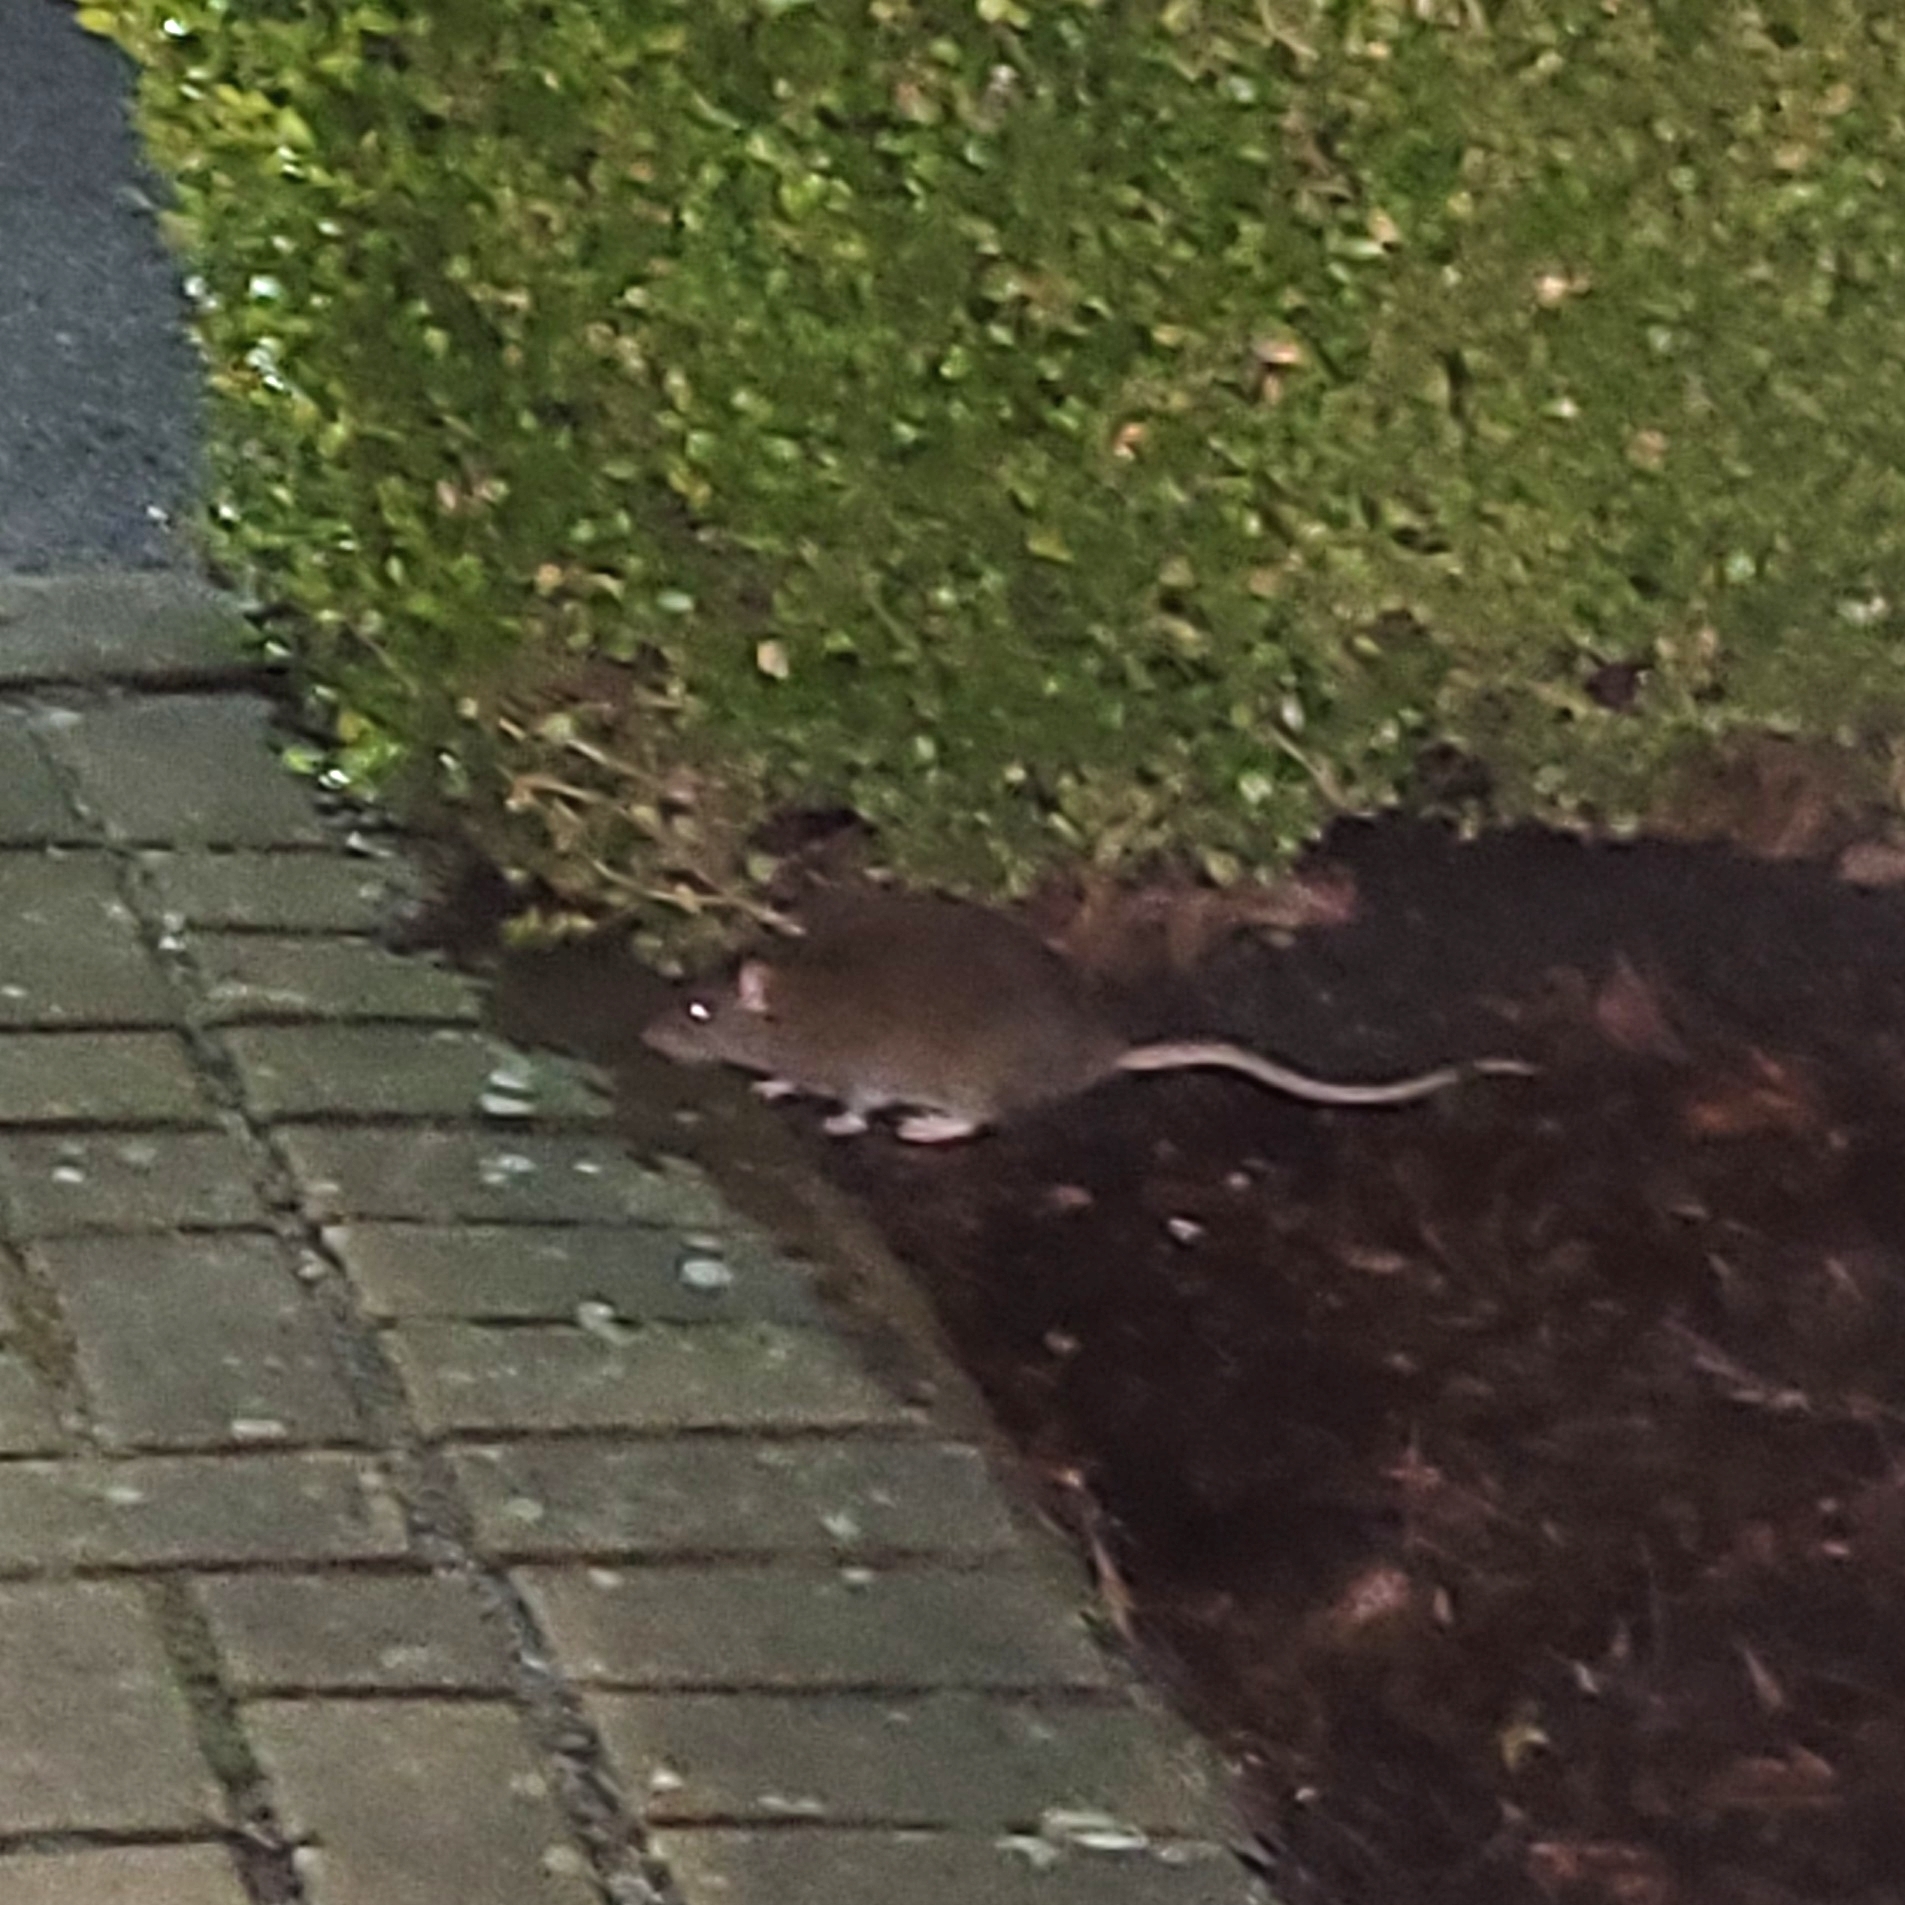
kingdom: Animalia
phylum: Chordata
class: Mammalia
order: Rodentia
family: Muridae
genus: Rattus
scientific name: Rattus norvegicus
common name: Brown rat
